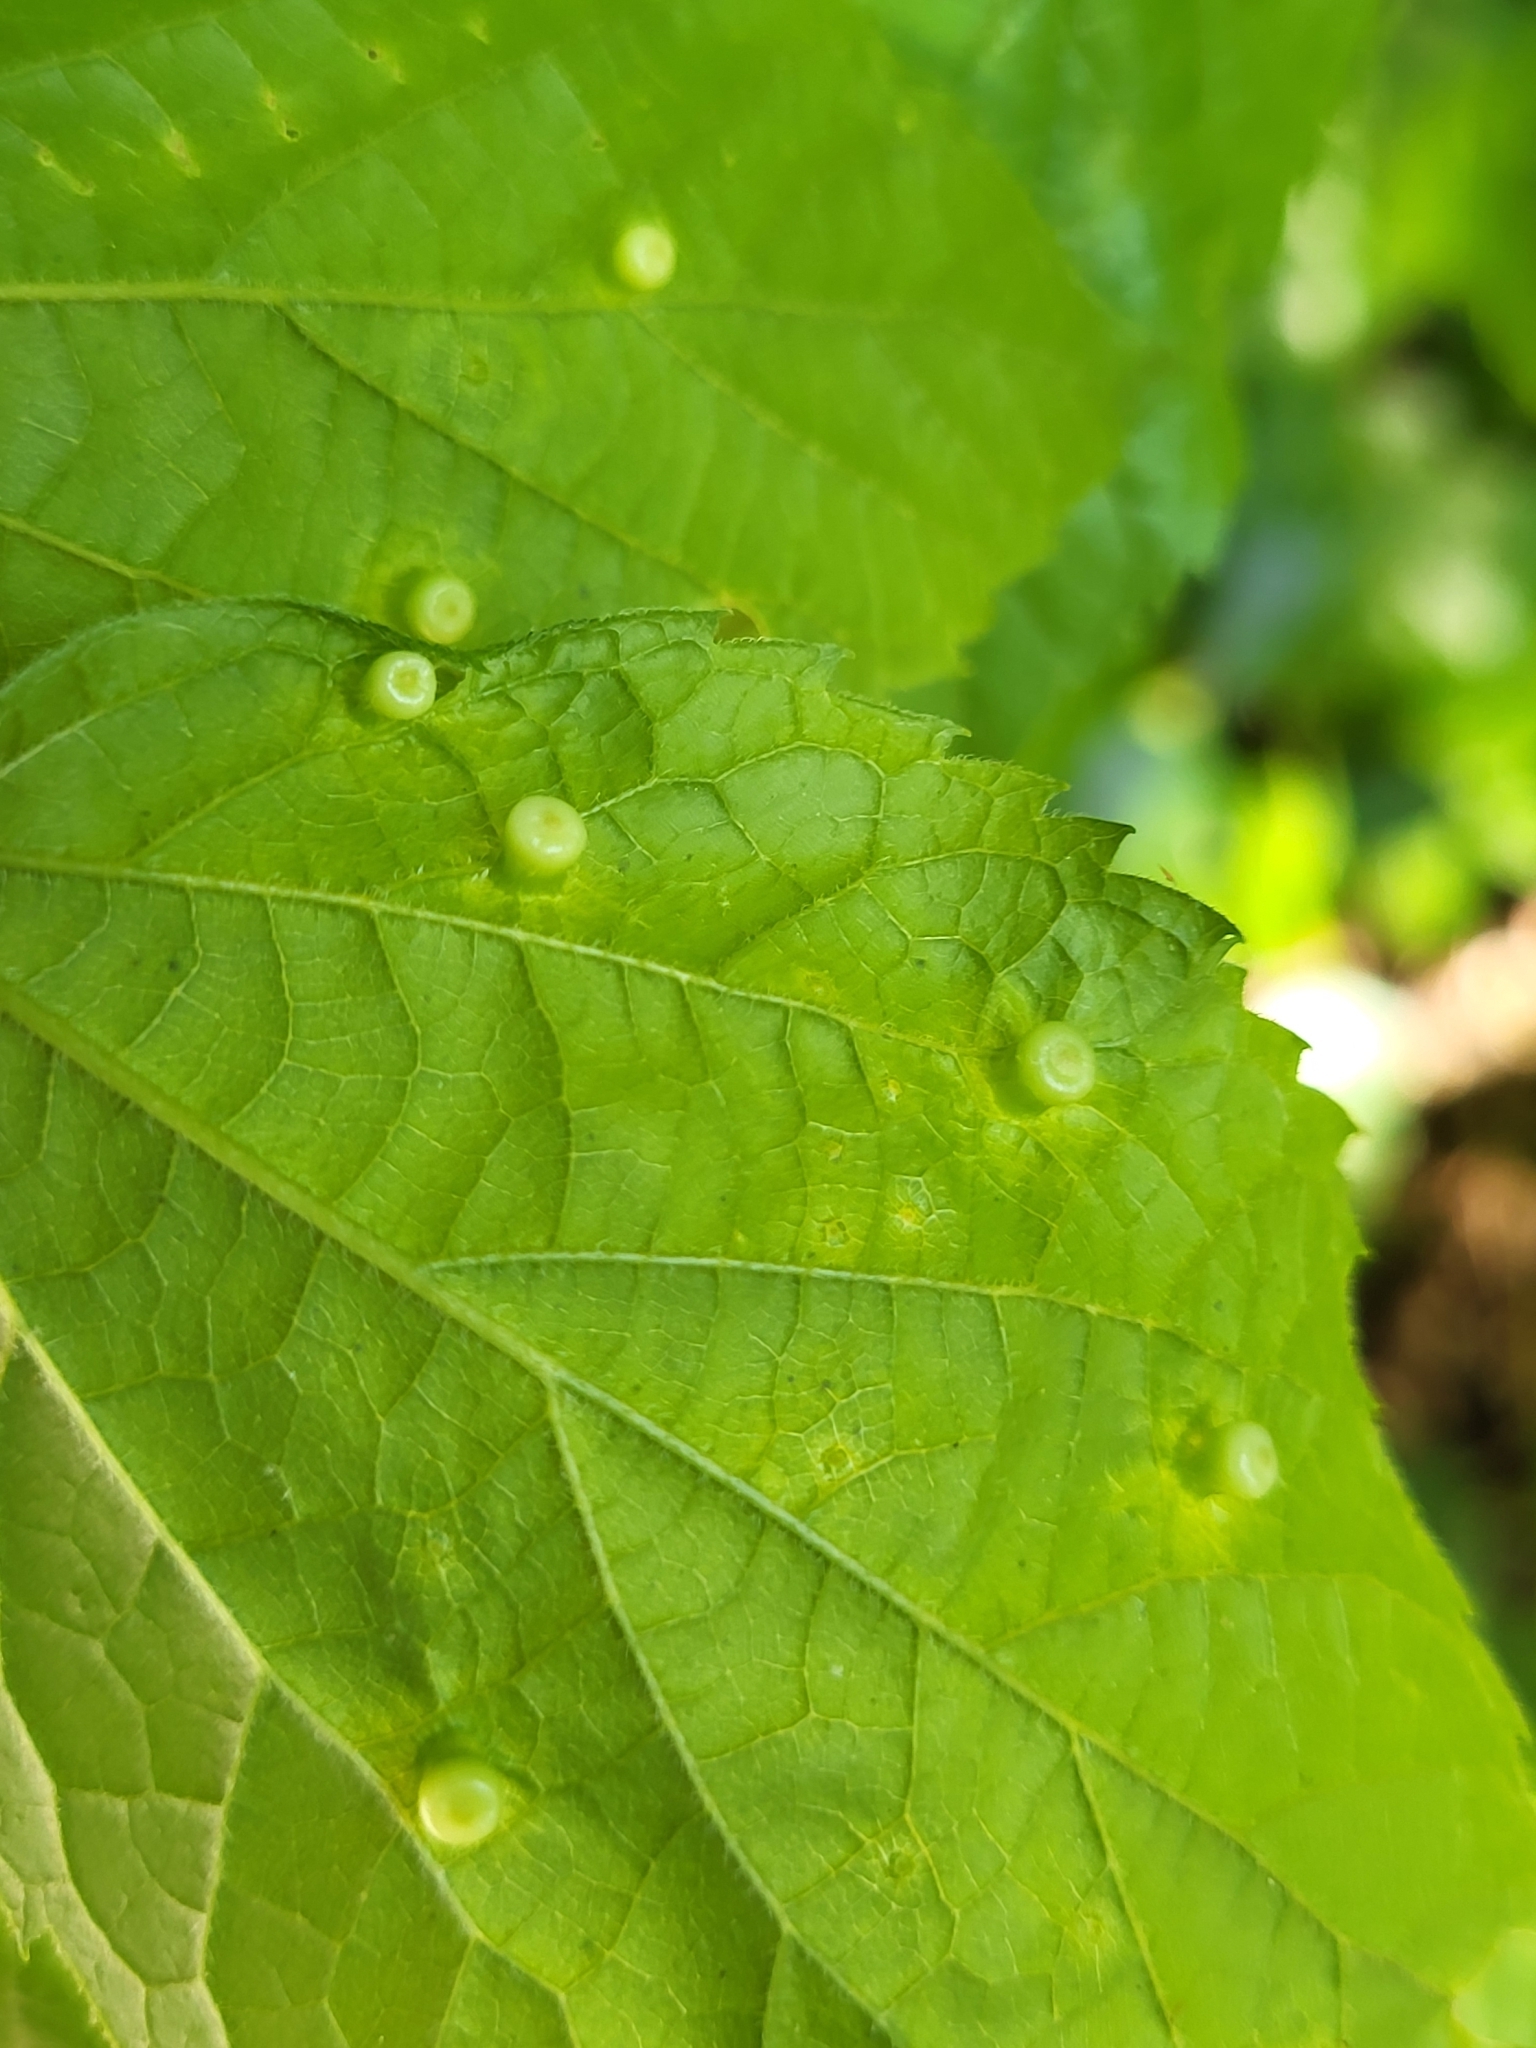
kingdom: Animalia
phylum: Arthropoda
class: Insecta
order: Hemiptera
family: Aphalaridae
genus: Pachypsylla
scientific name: Pachypsylla celtidismamma
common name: Hackberry nipplegall psyllid
